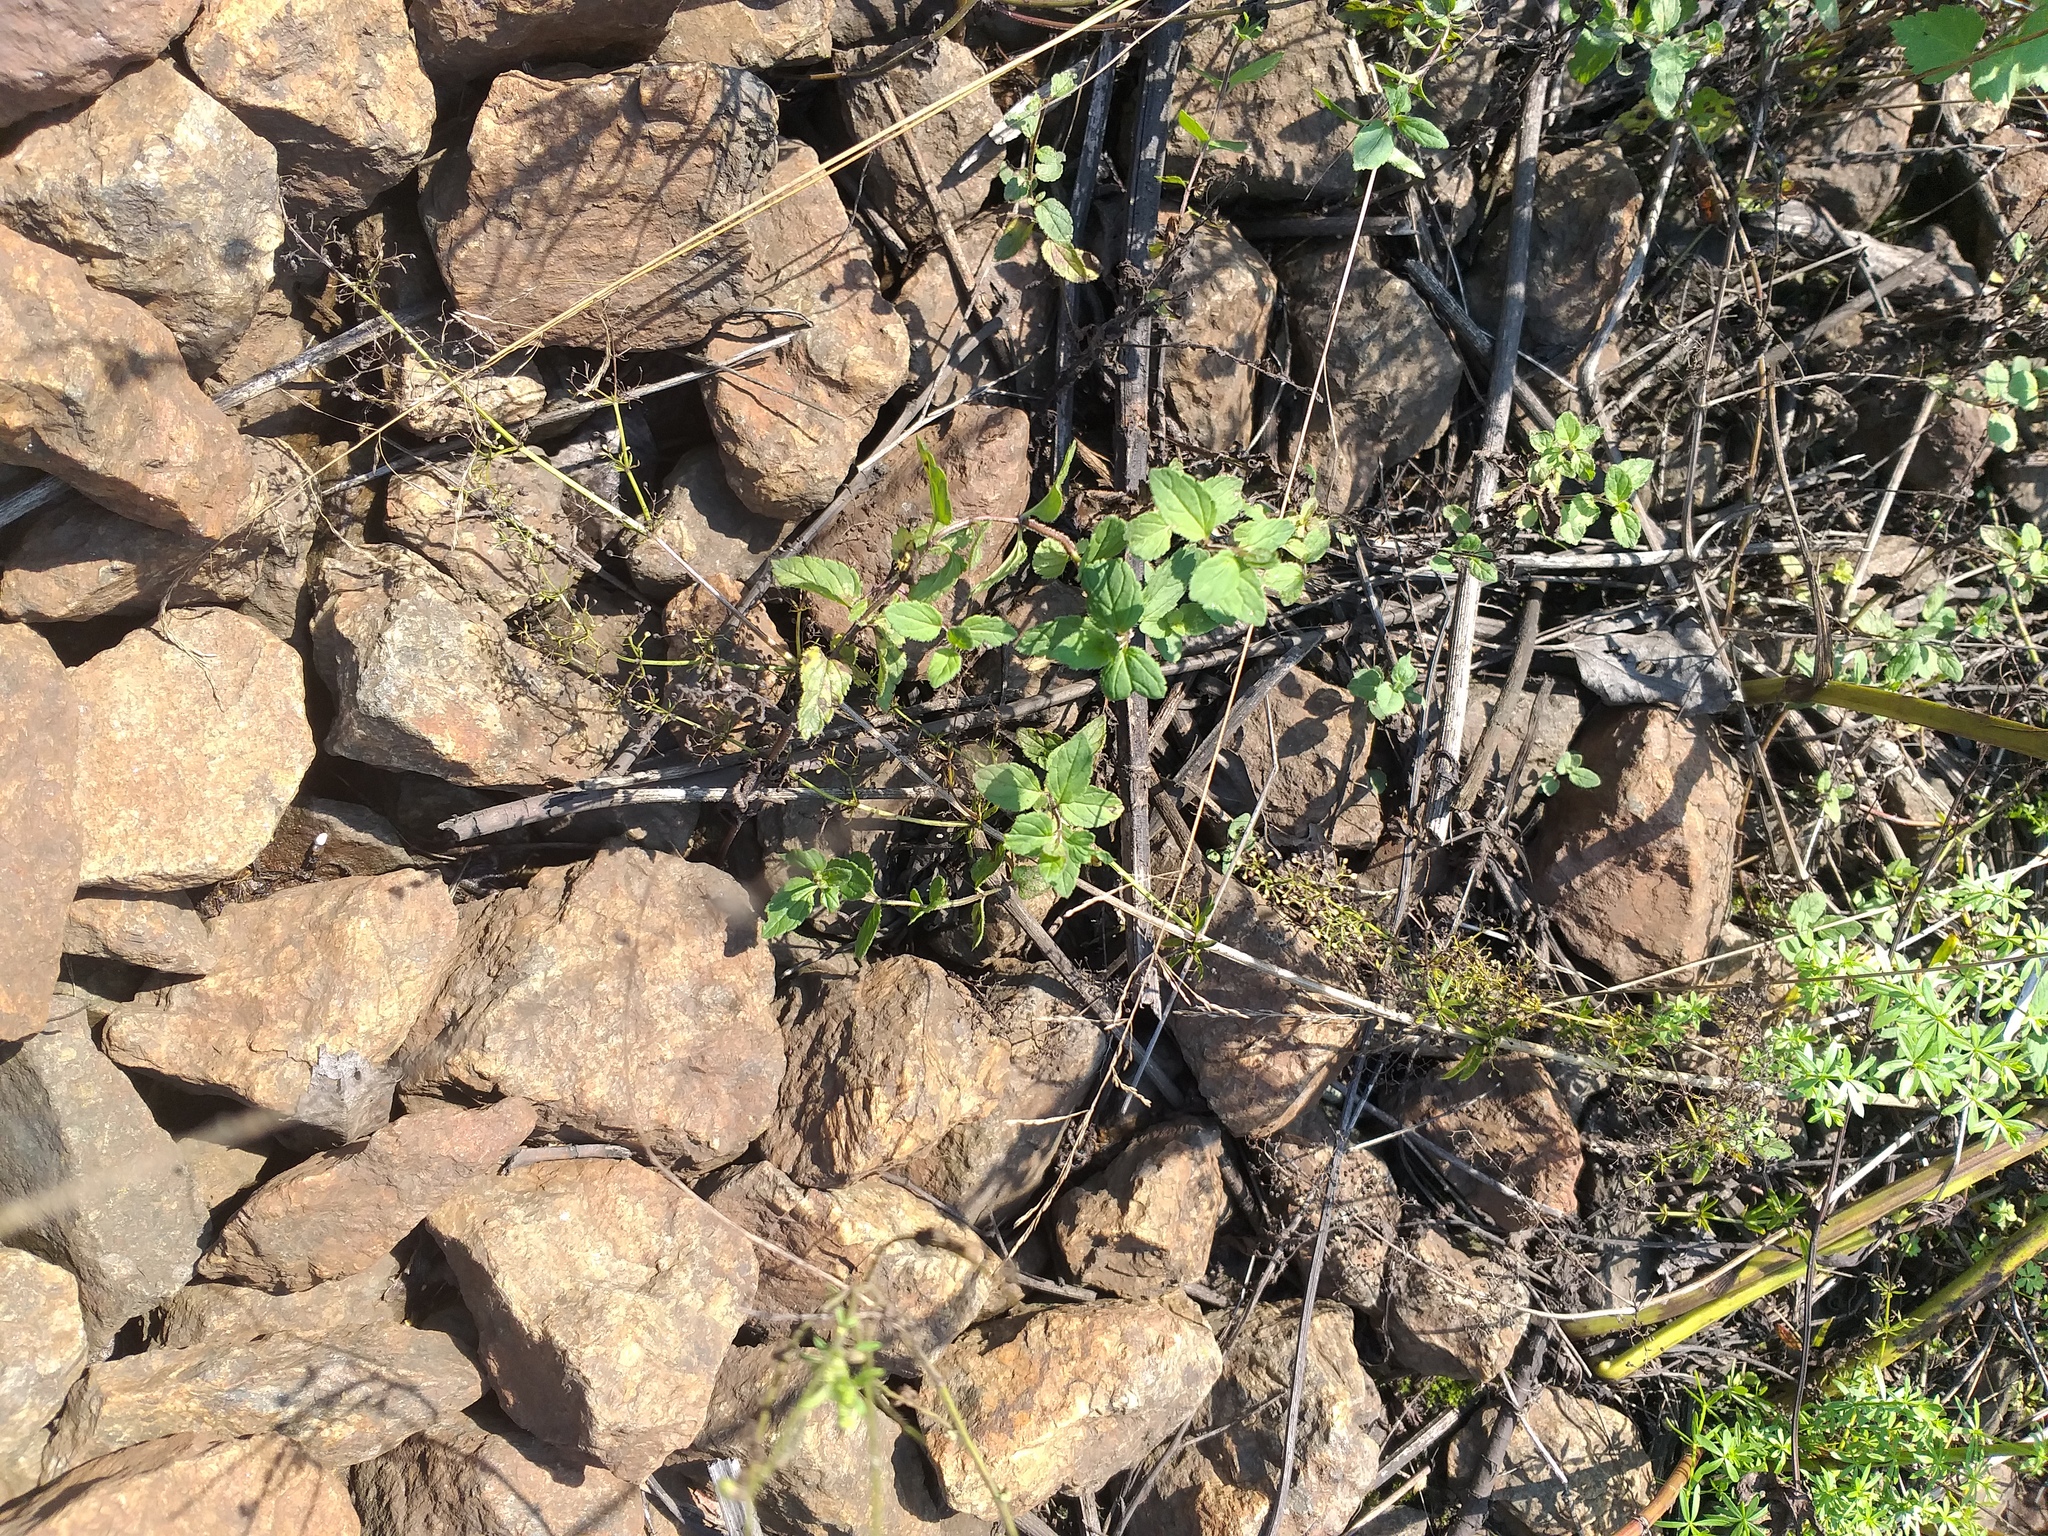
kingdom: Plantae
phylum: Tracheophyta
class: Magnoliopsida
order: Lamiales
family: Plantaginaceae
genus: Veronica
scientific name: Veronica chamaedrys
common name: Germander speedwell
